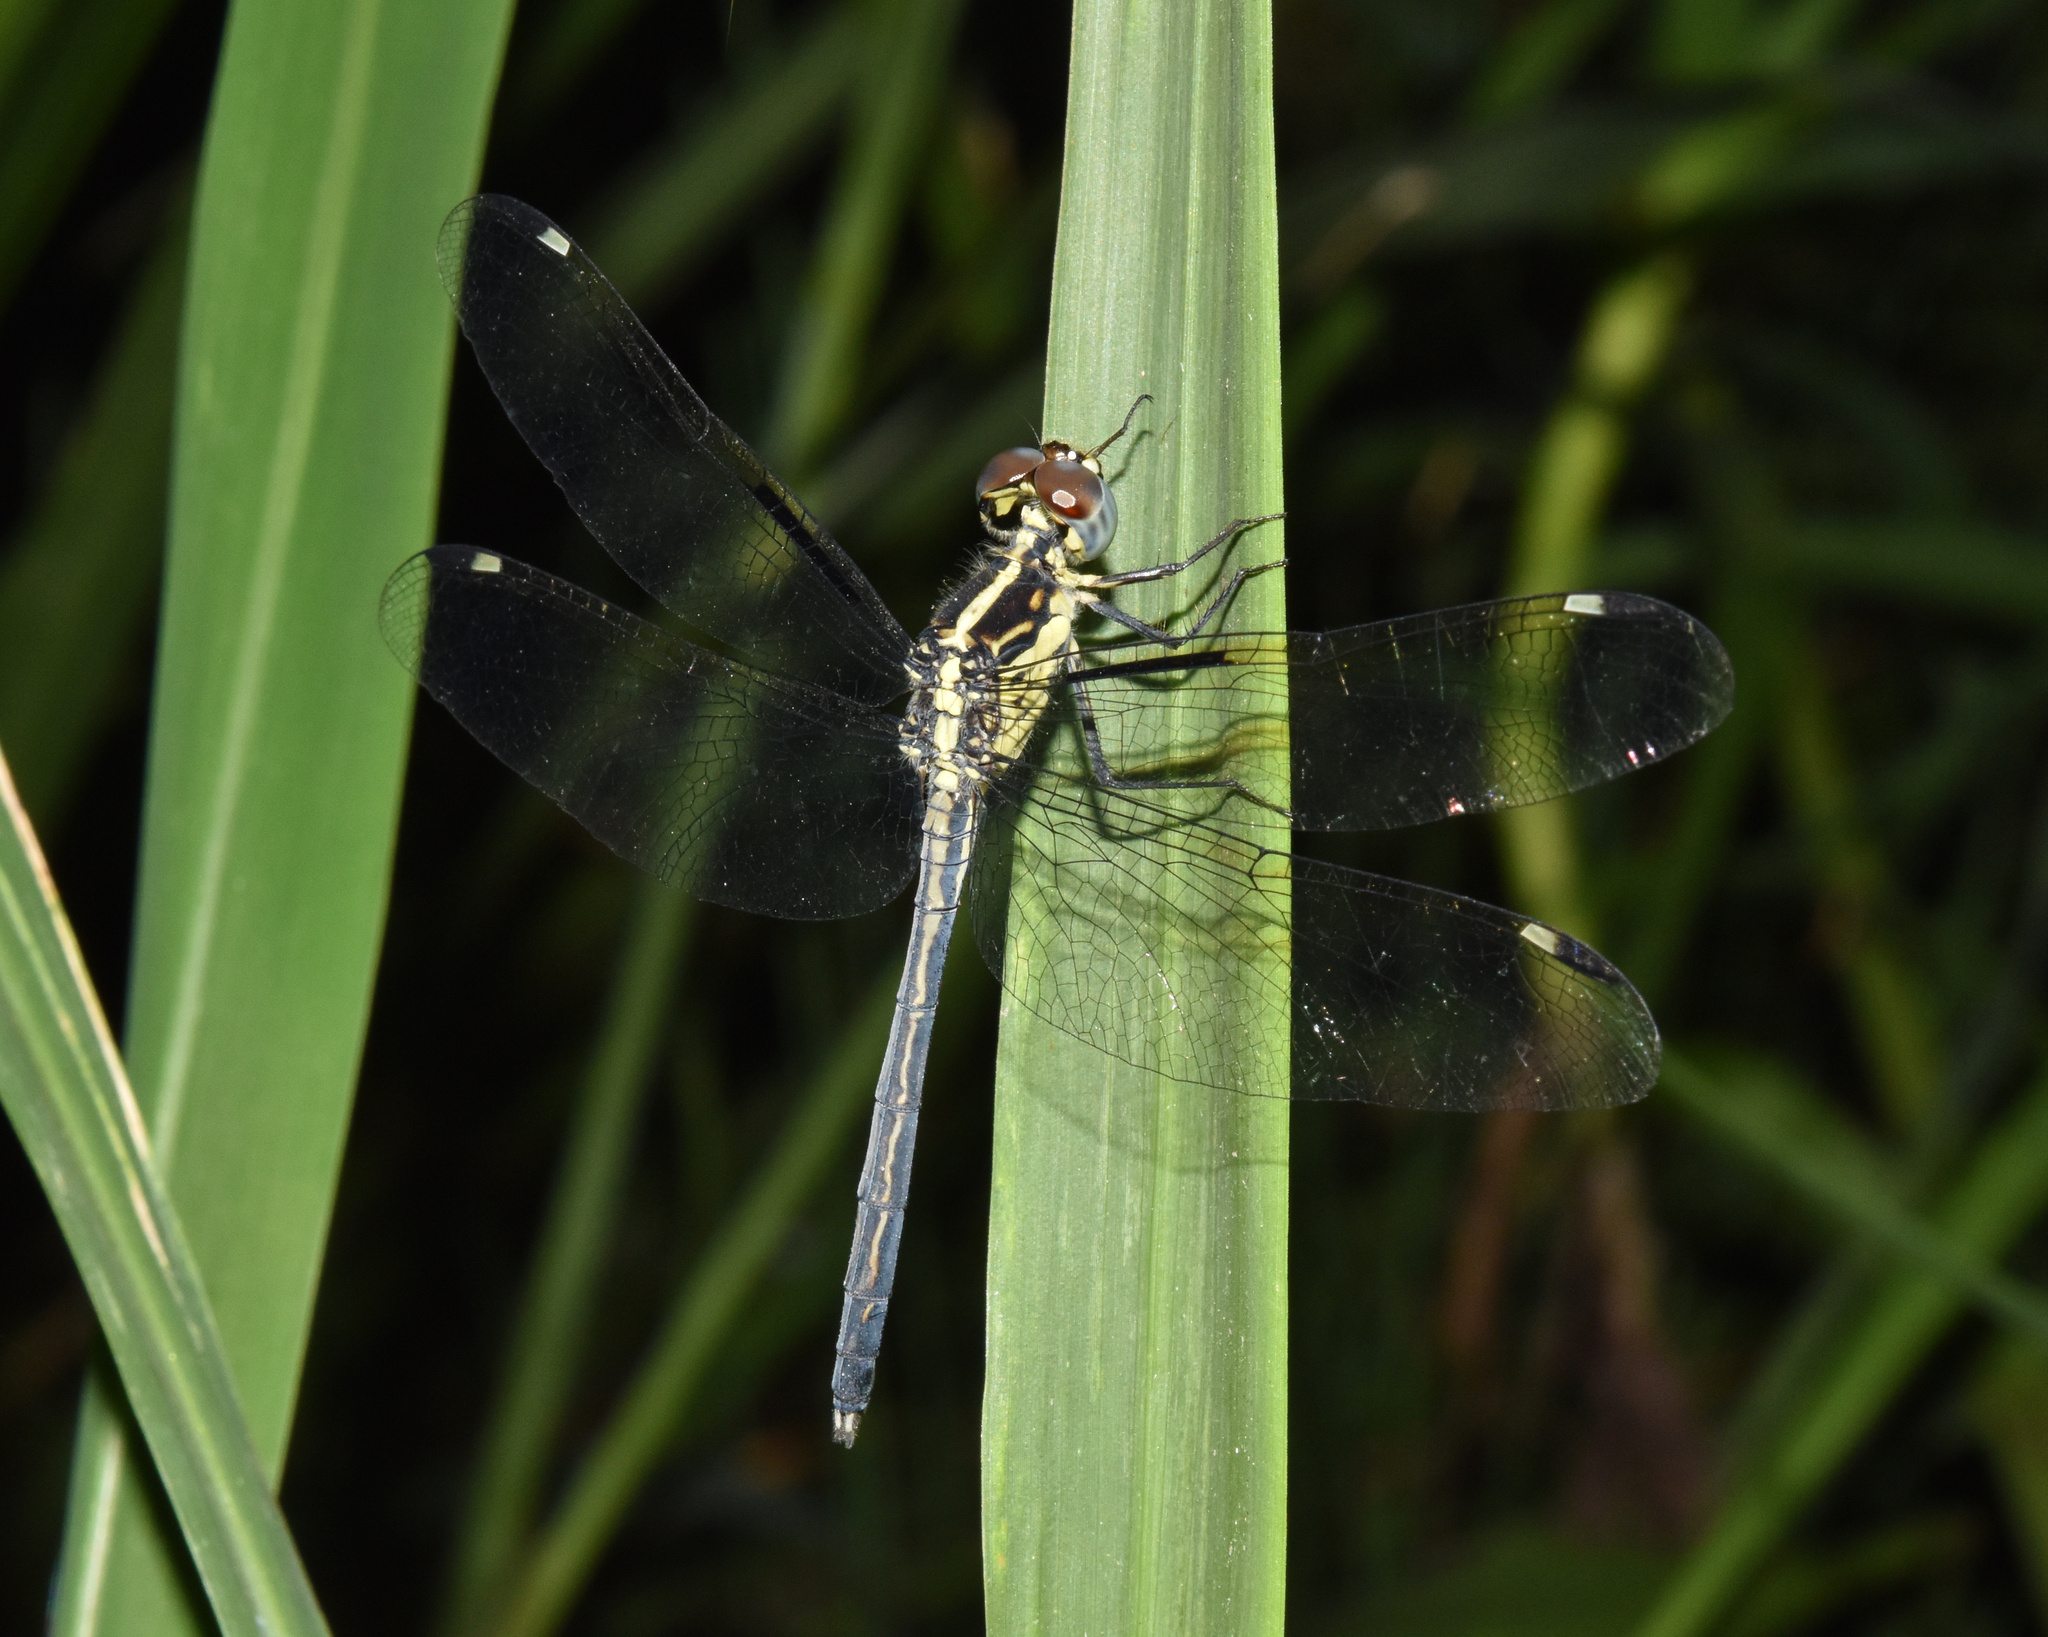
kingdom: Animalia
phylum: Arthropoda
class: Insecta
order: Odonata
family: Libellulidae
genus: Hemistigma
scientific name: Hemistigma albipunctum
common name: African pied-spot
